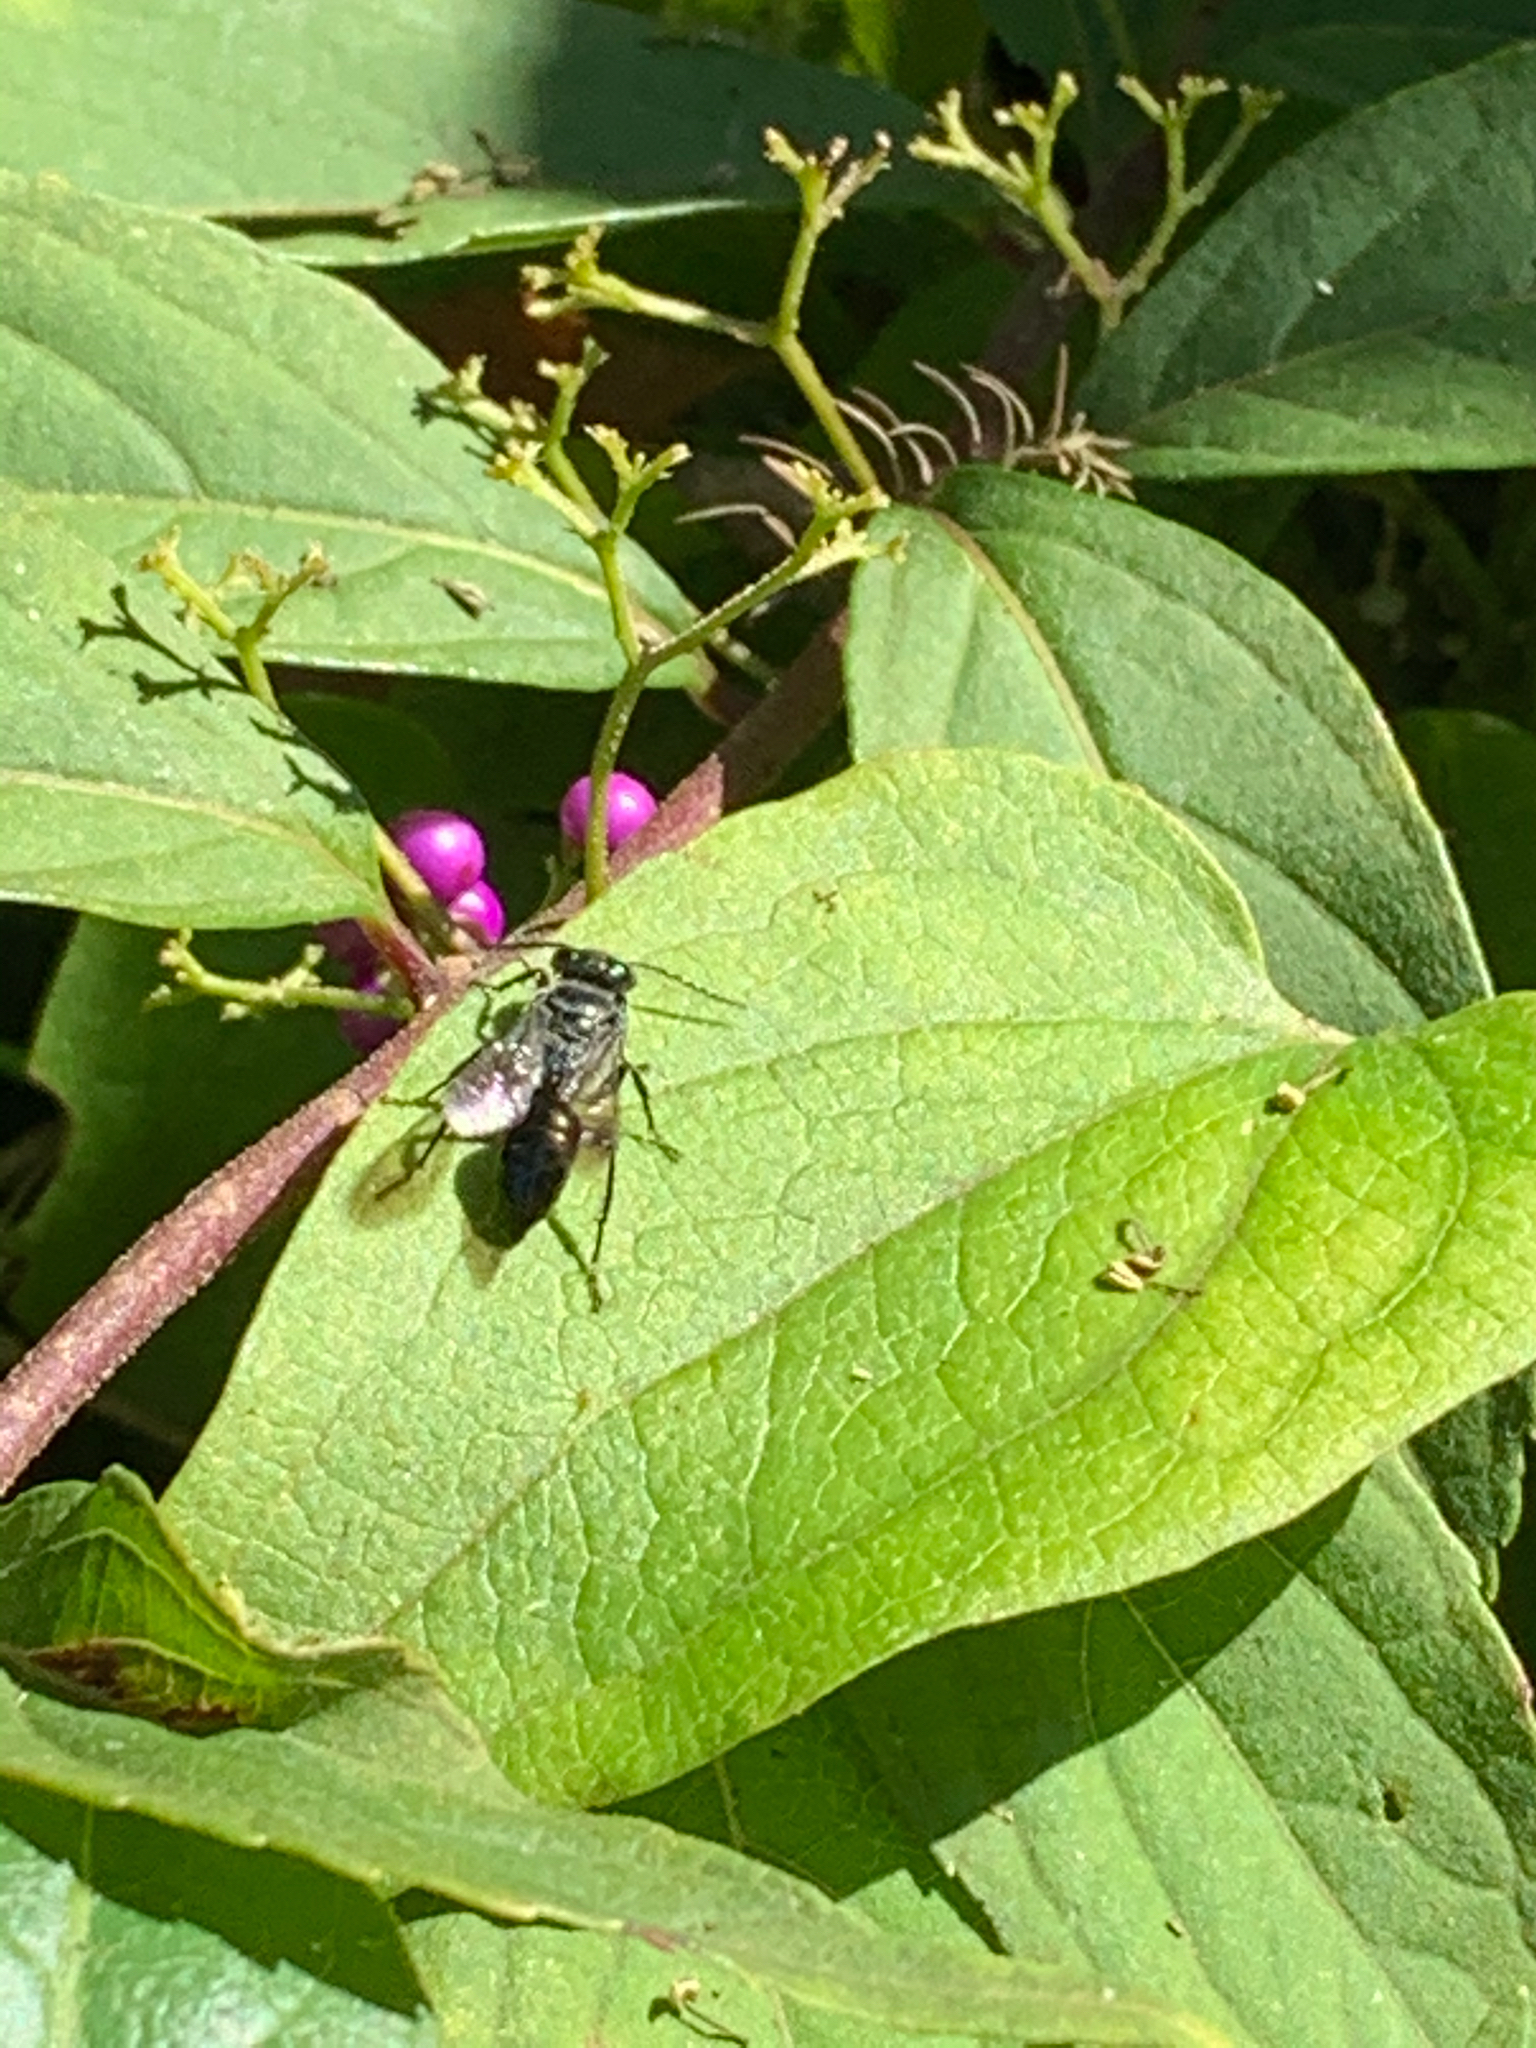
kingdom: Animalia
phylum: Arthropoda
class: Insecta
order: Hymenoptera
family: Crabronidae
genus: Astata
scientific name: Astata
